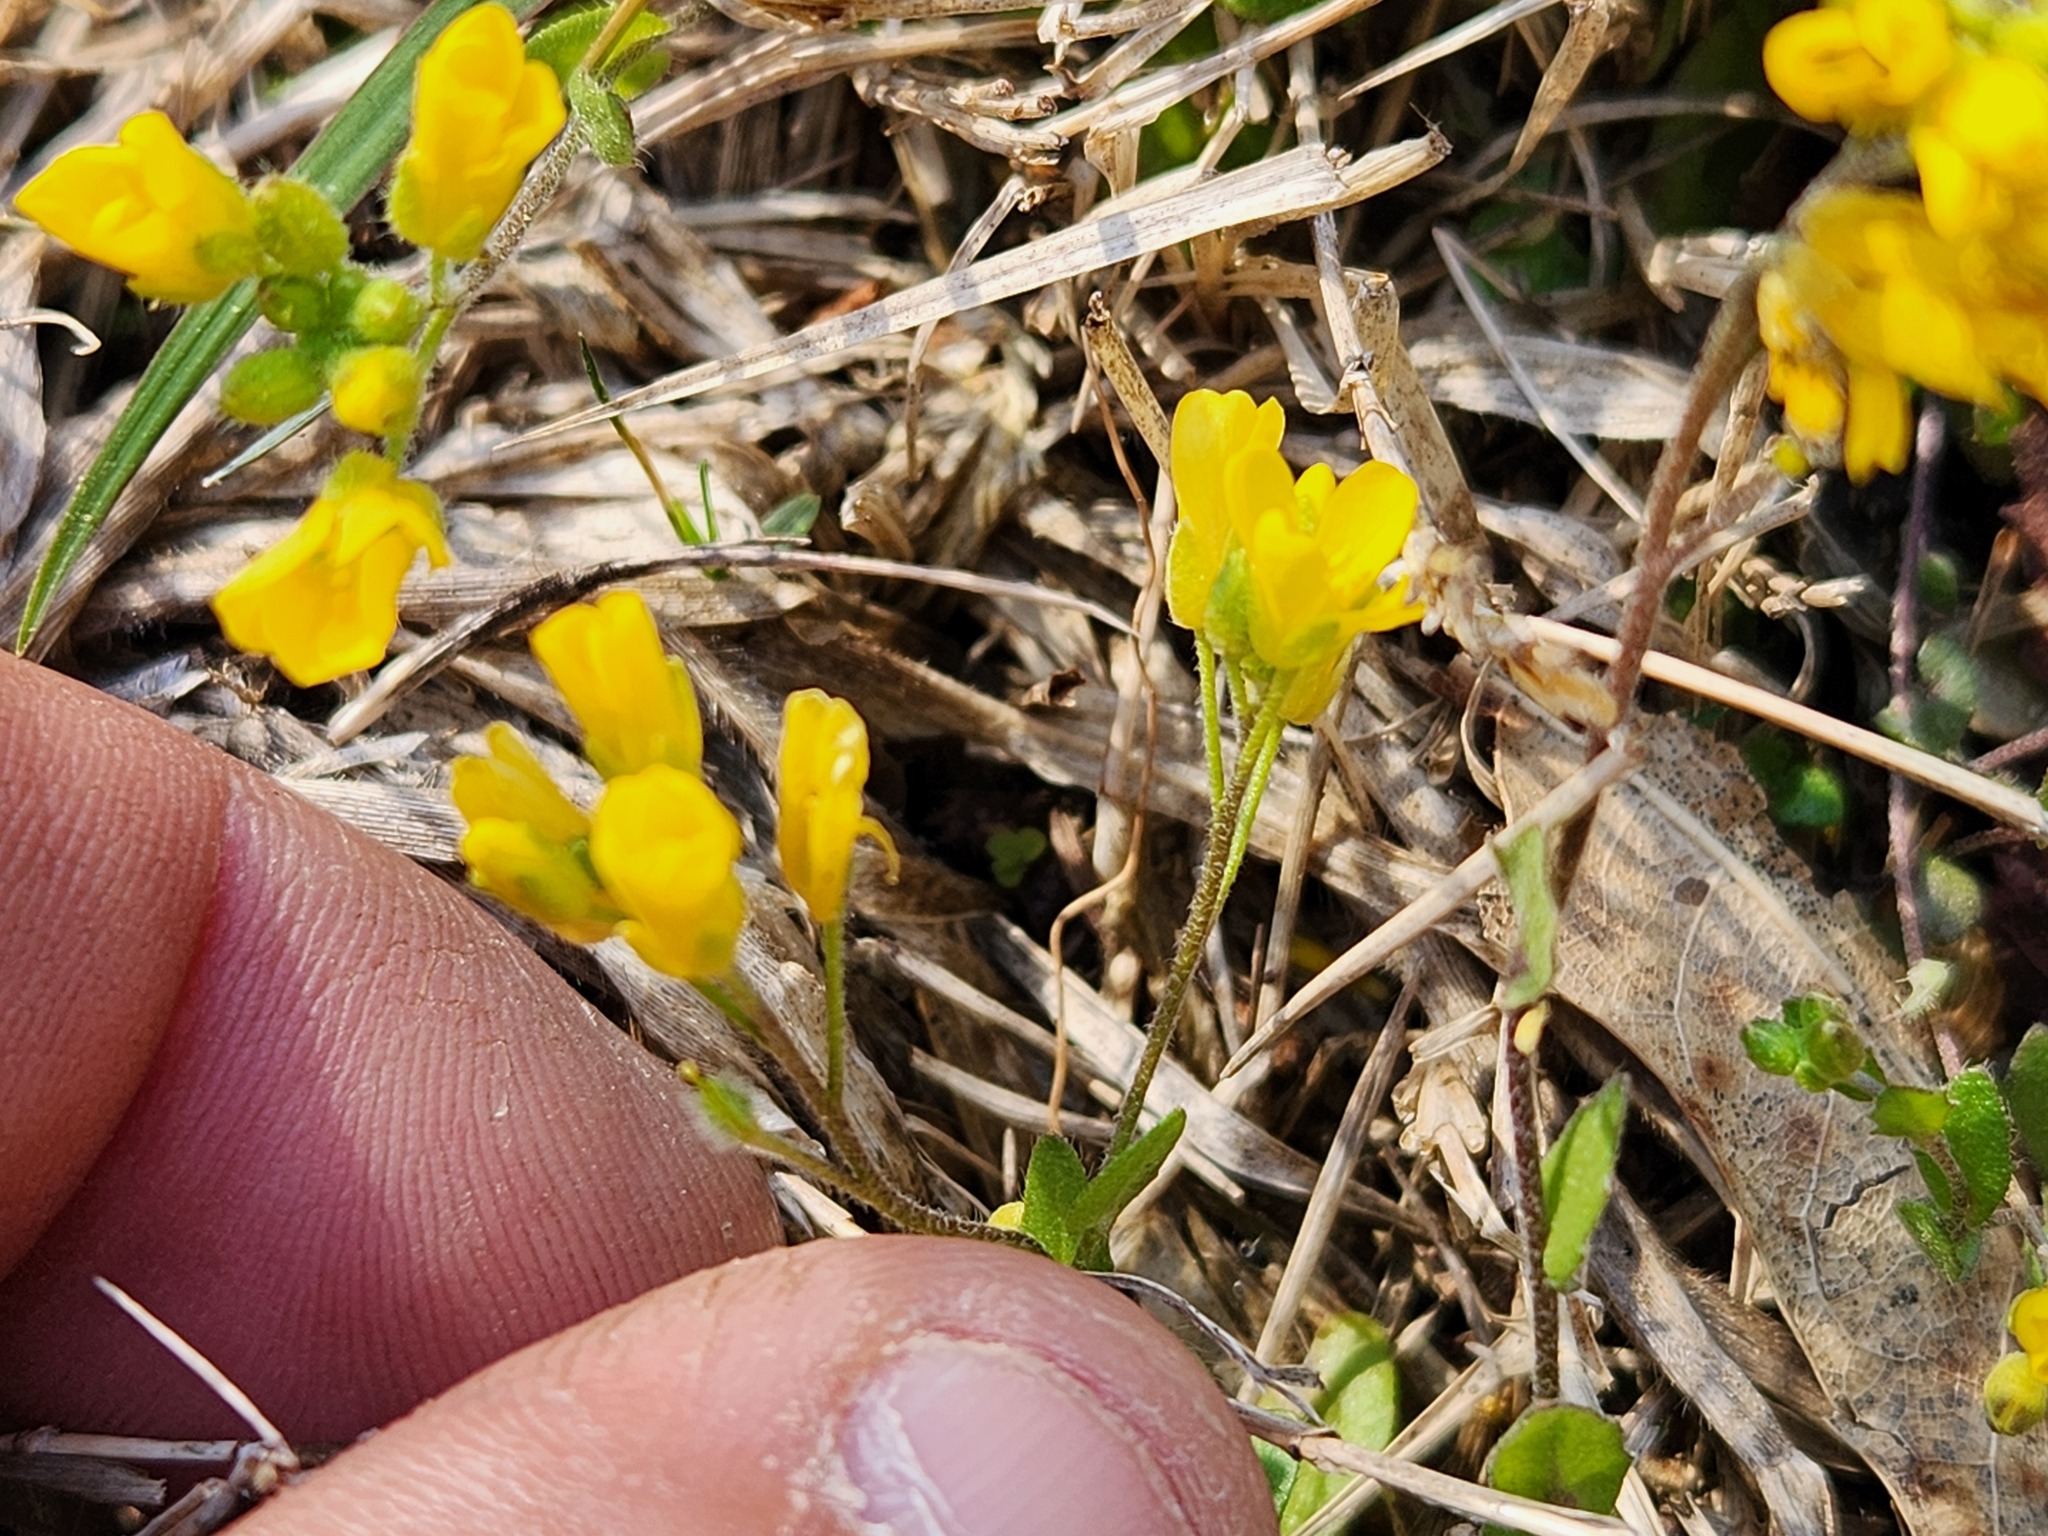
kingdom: Plantae
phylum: Tracheophyta
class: Magnoliopsida
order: Brassicales
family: Brassicaceae
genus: Paysonia
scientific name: Paysonia lescurii
